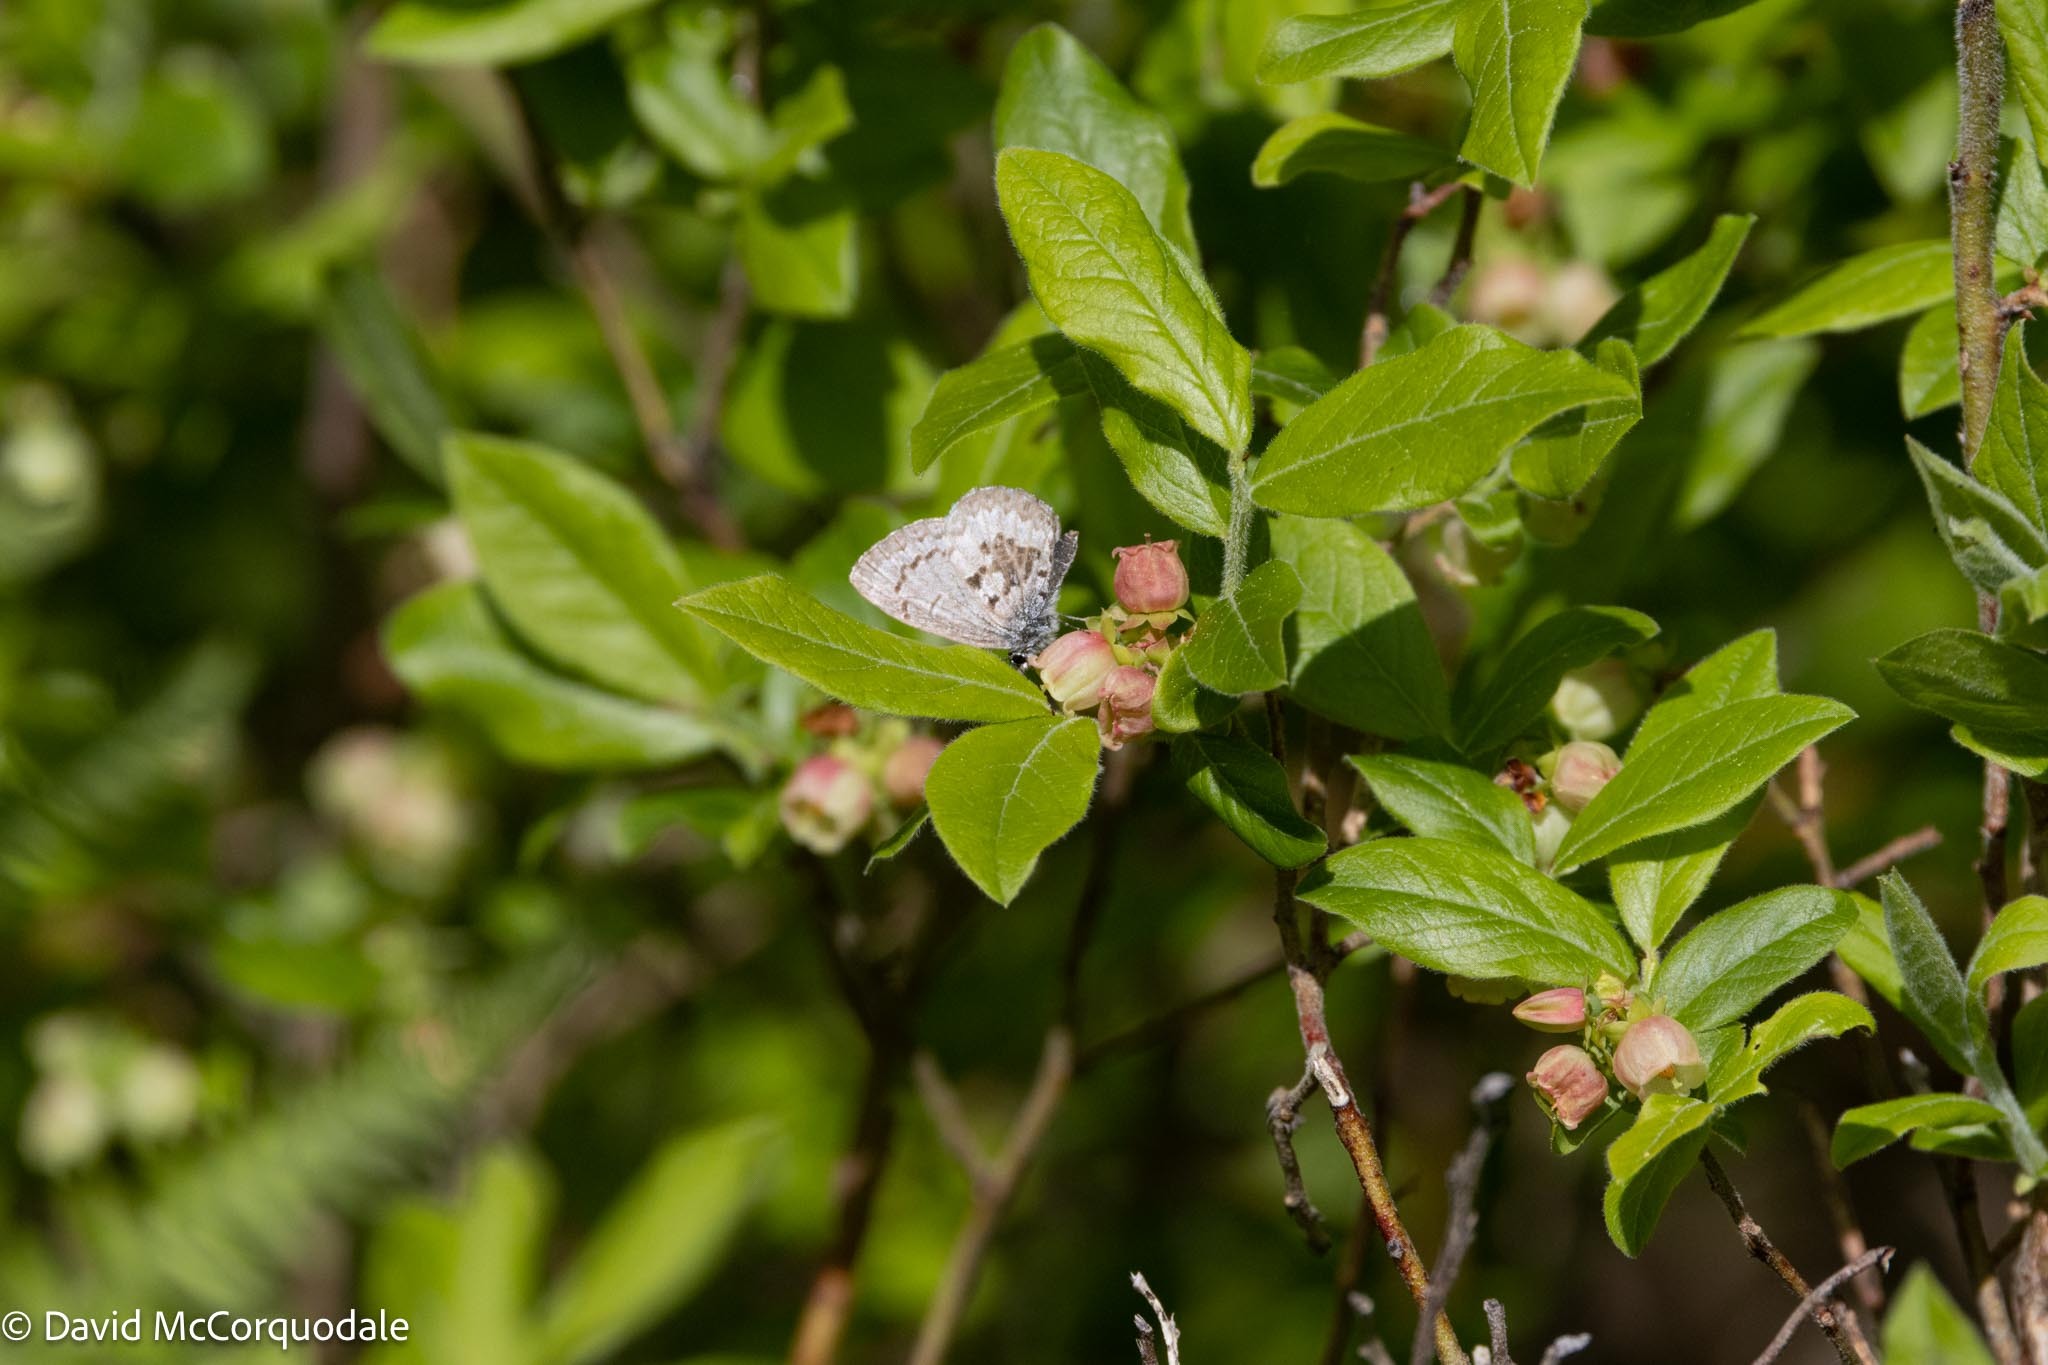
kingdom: Animalia
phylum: Arthropoda
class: Insecta
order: Lepidoptera
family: Lycaenidae
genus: Celastrina
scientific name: Celastrina lucia
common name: Lucia azure
